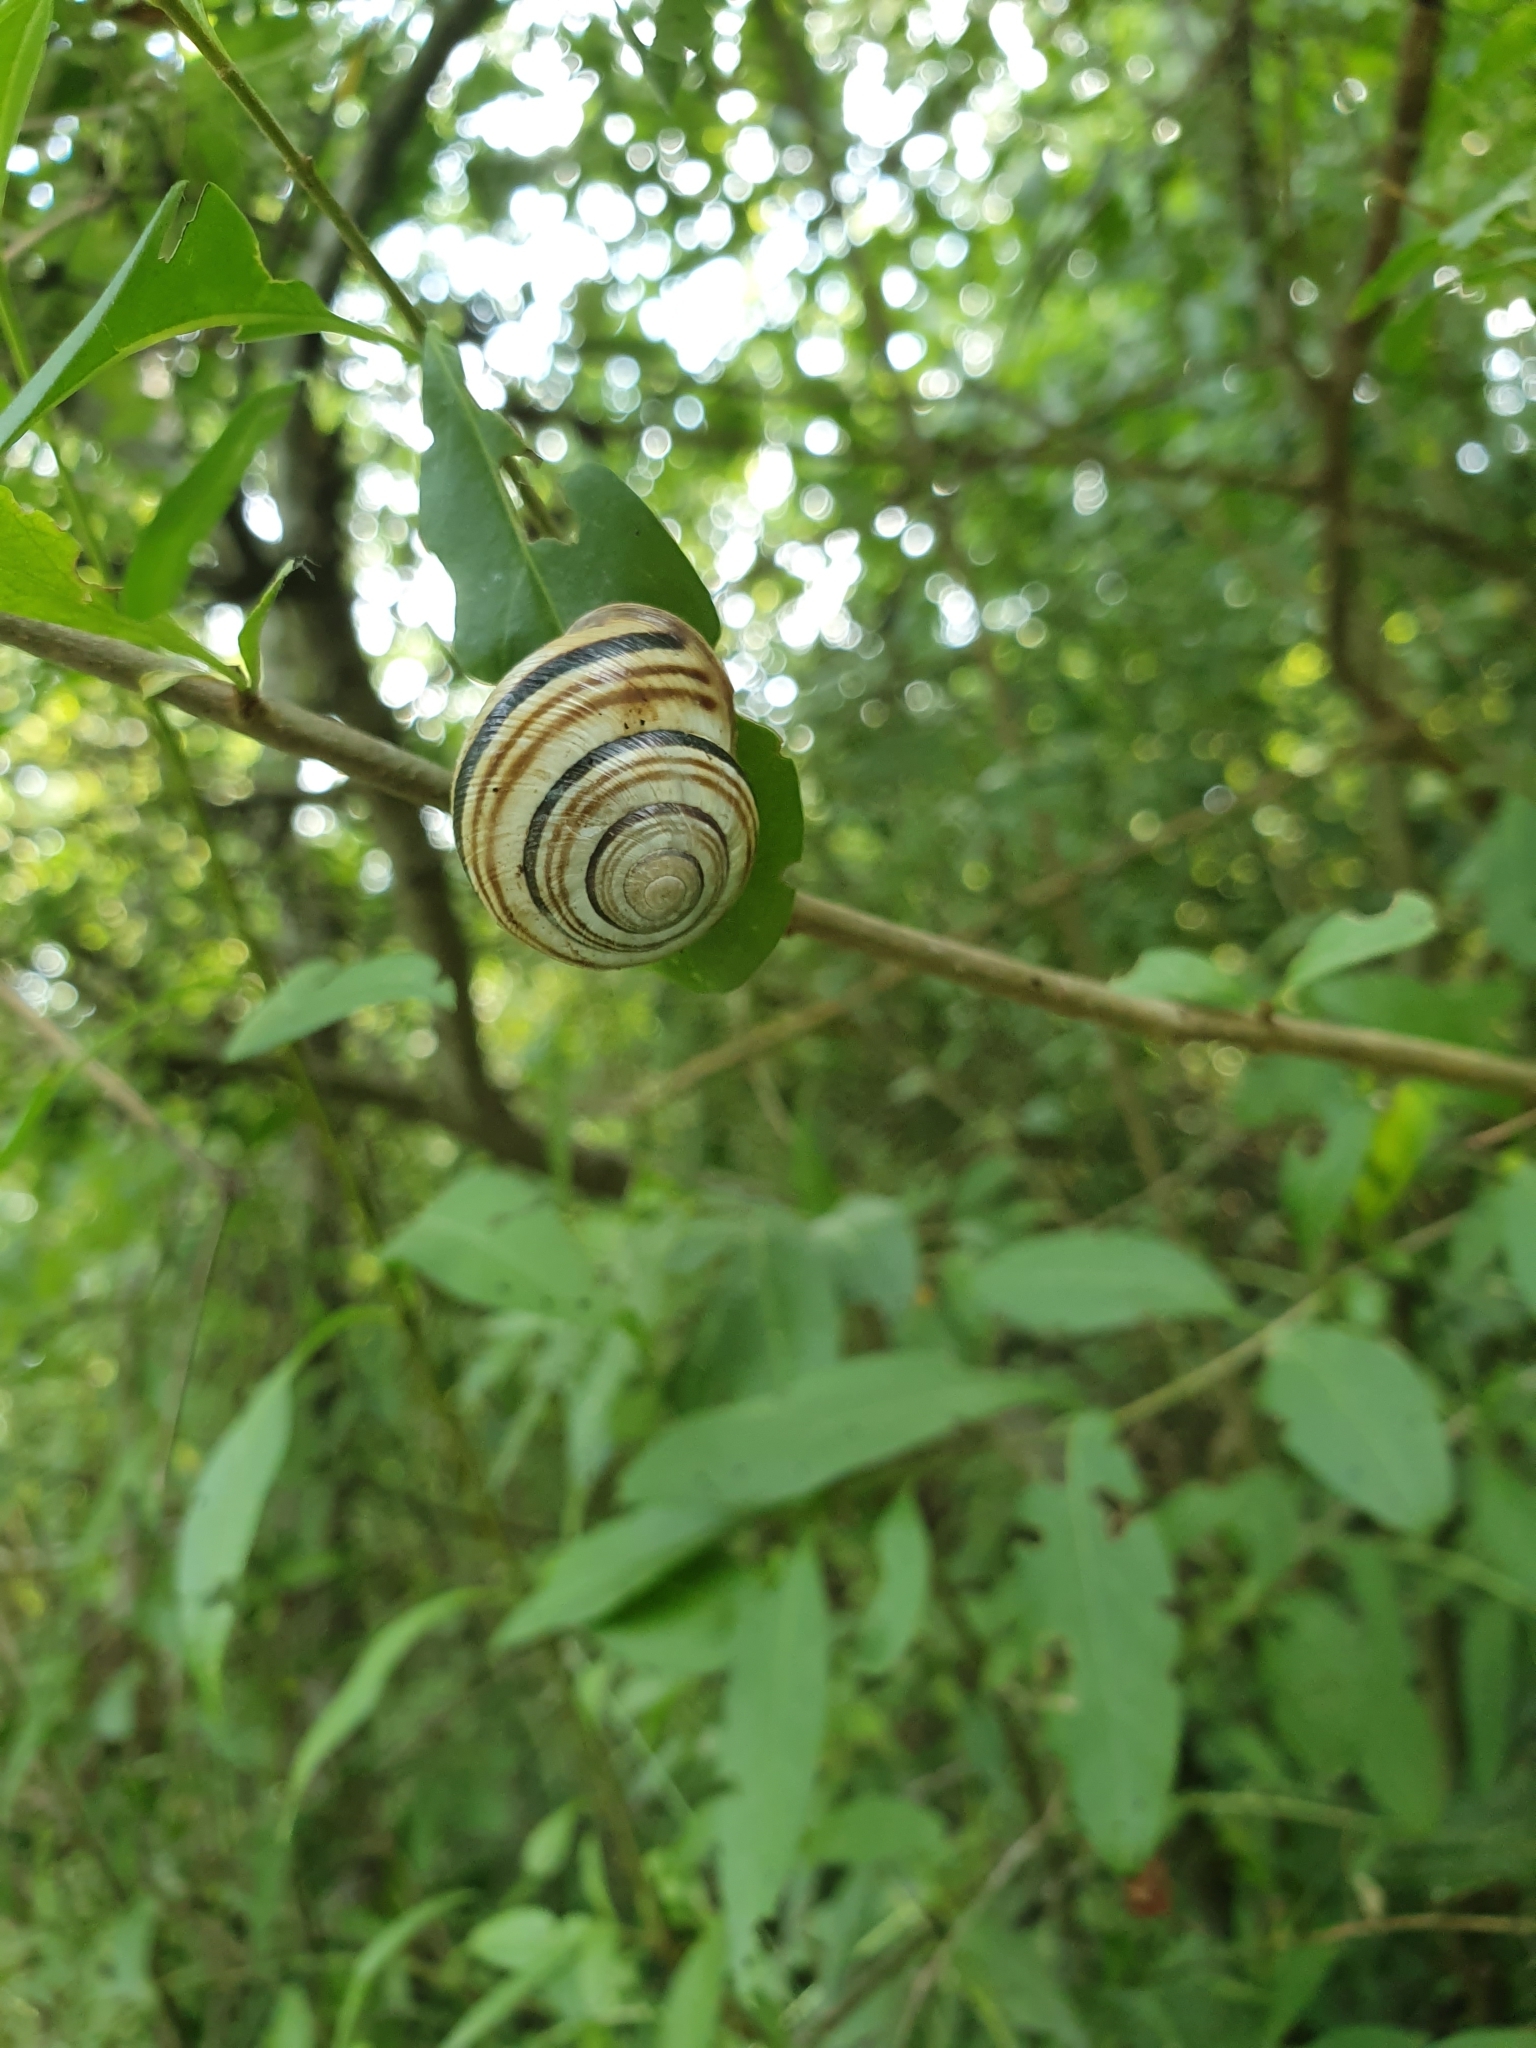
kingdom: Animalia
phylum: Mollusca
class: Gastropoda
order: Stylommatophora
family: Helicidae
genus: Caucasotachea
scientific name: Caucasotachea vindobonensis
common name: European helicid land snail
